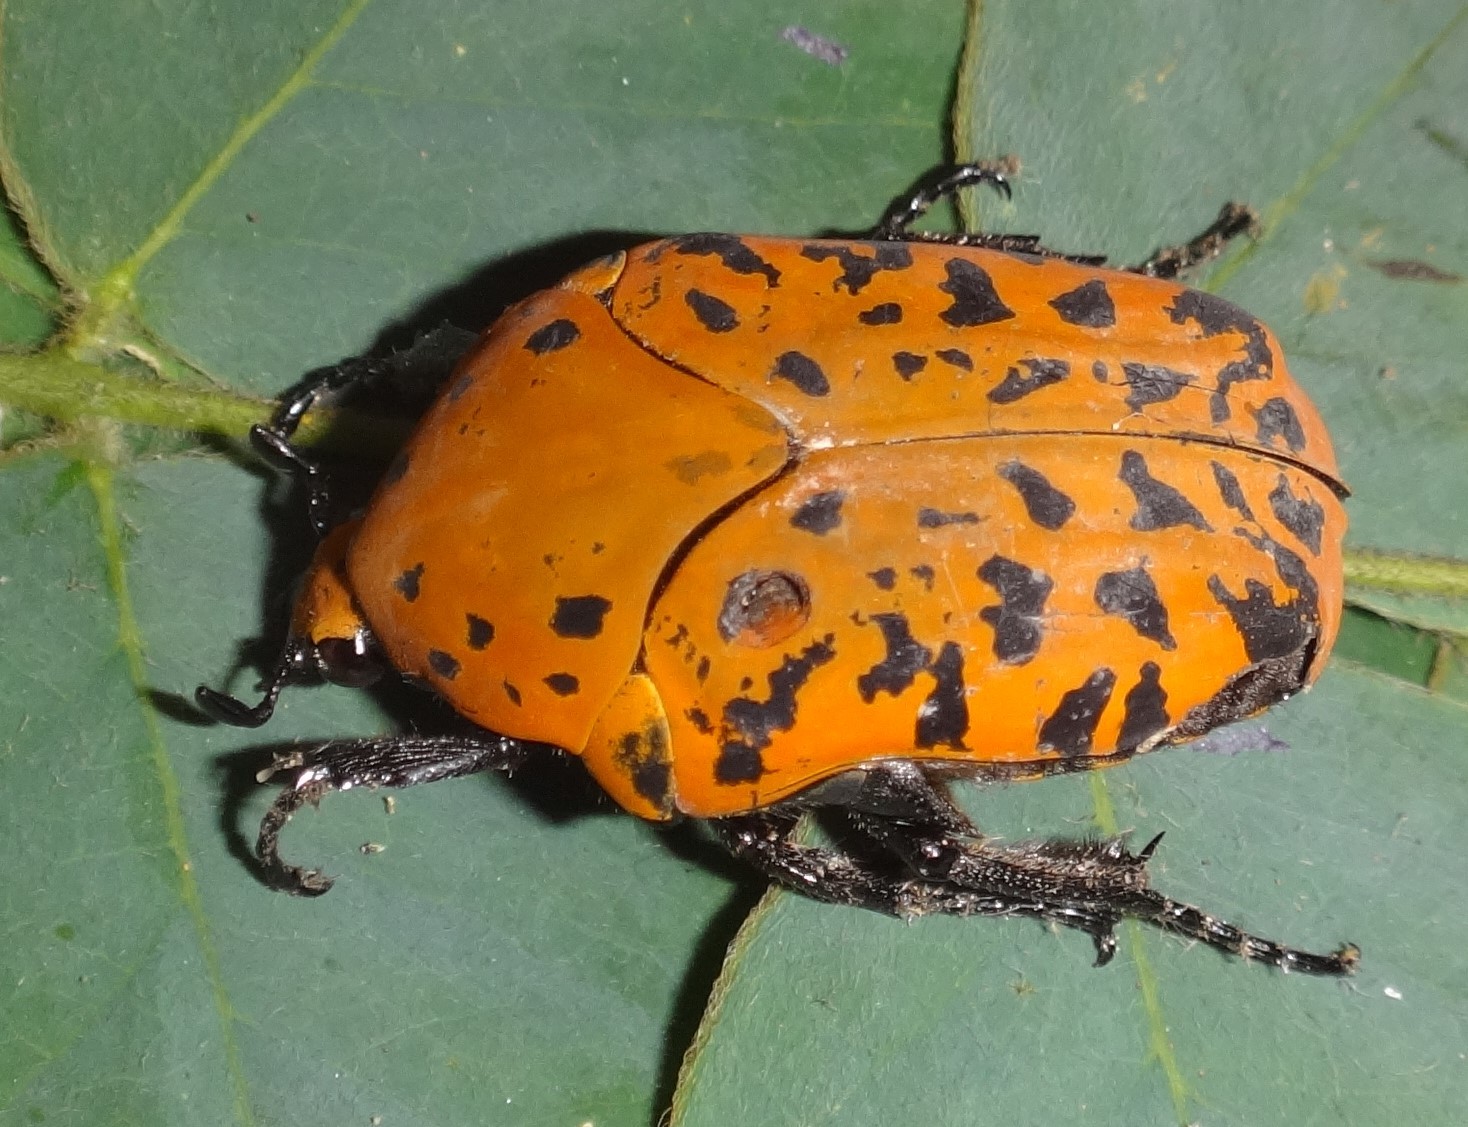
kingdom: Animalia
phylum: Arthropoda
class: Insecta
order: Coleoptera
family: Scarabaeidae
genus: Gymnetis
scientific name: Gymnetis pantherina
